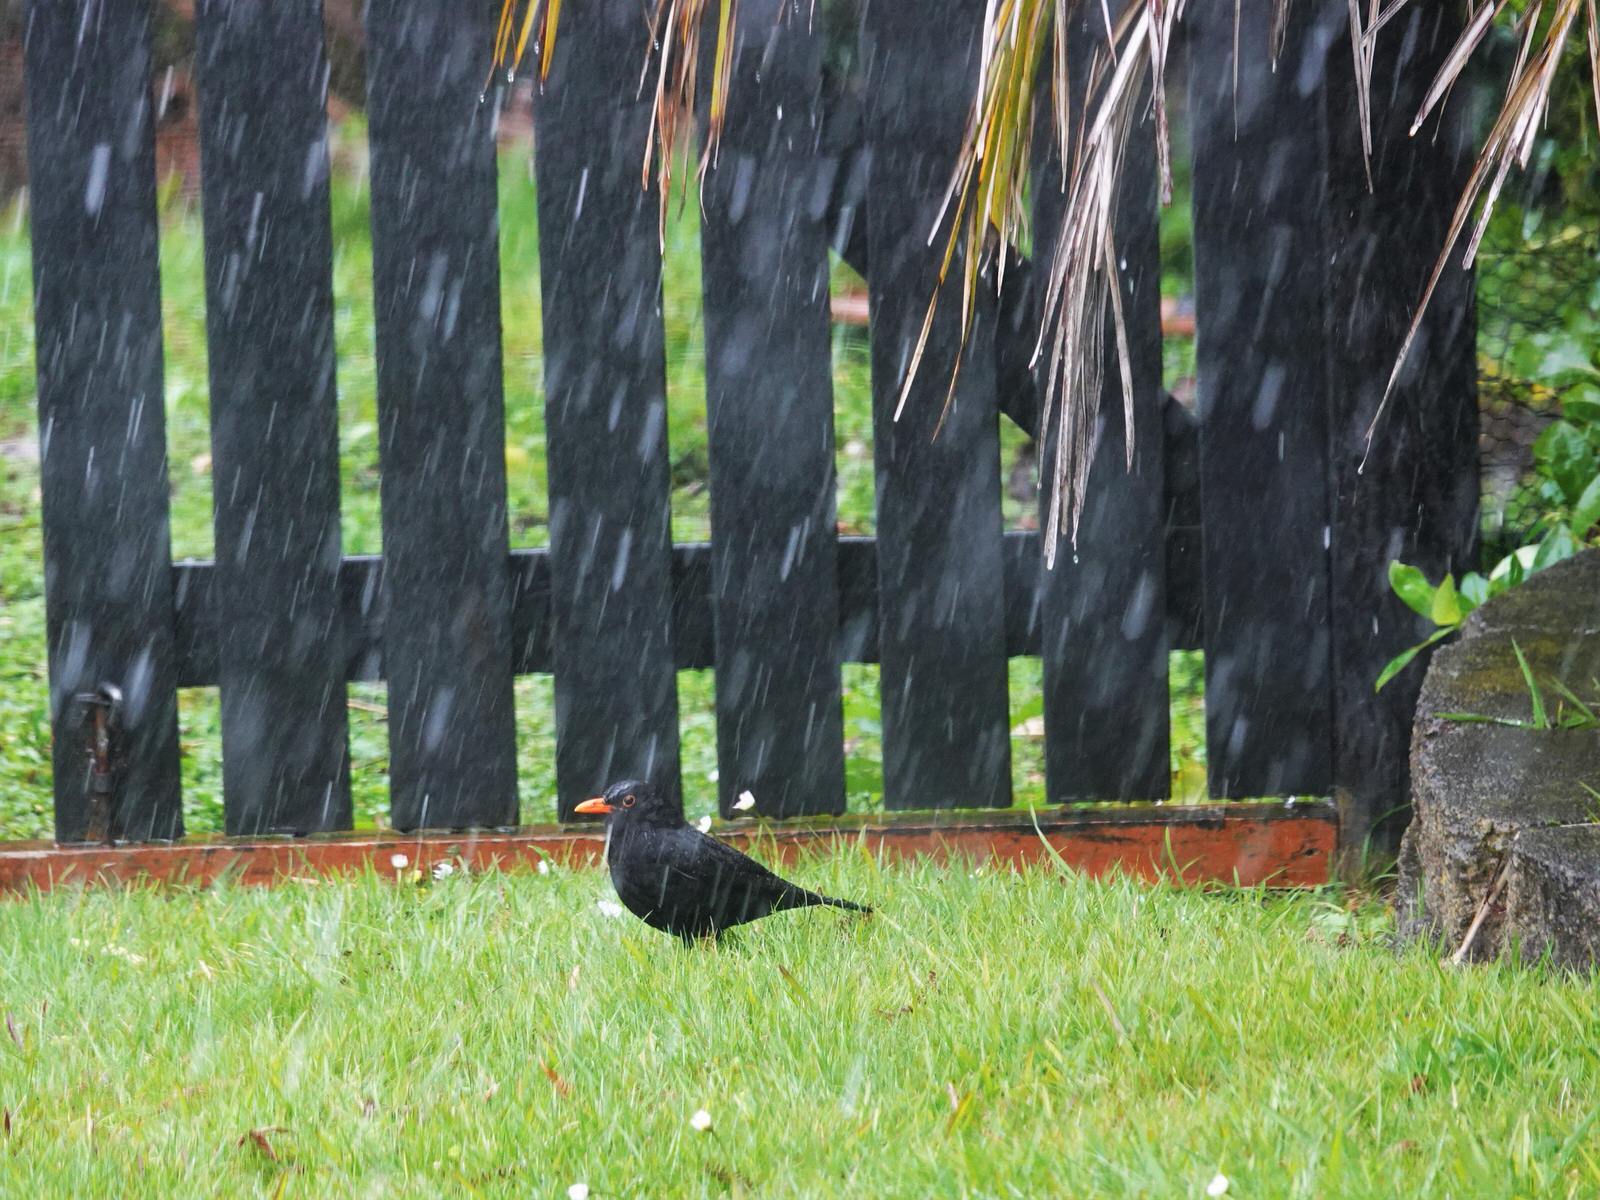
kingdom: Animalia
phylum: Chordata
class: Aves
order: Passeriformes
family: Turdidae
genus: Turdus
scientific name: Turdus merula
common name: Common blackbird
